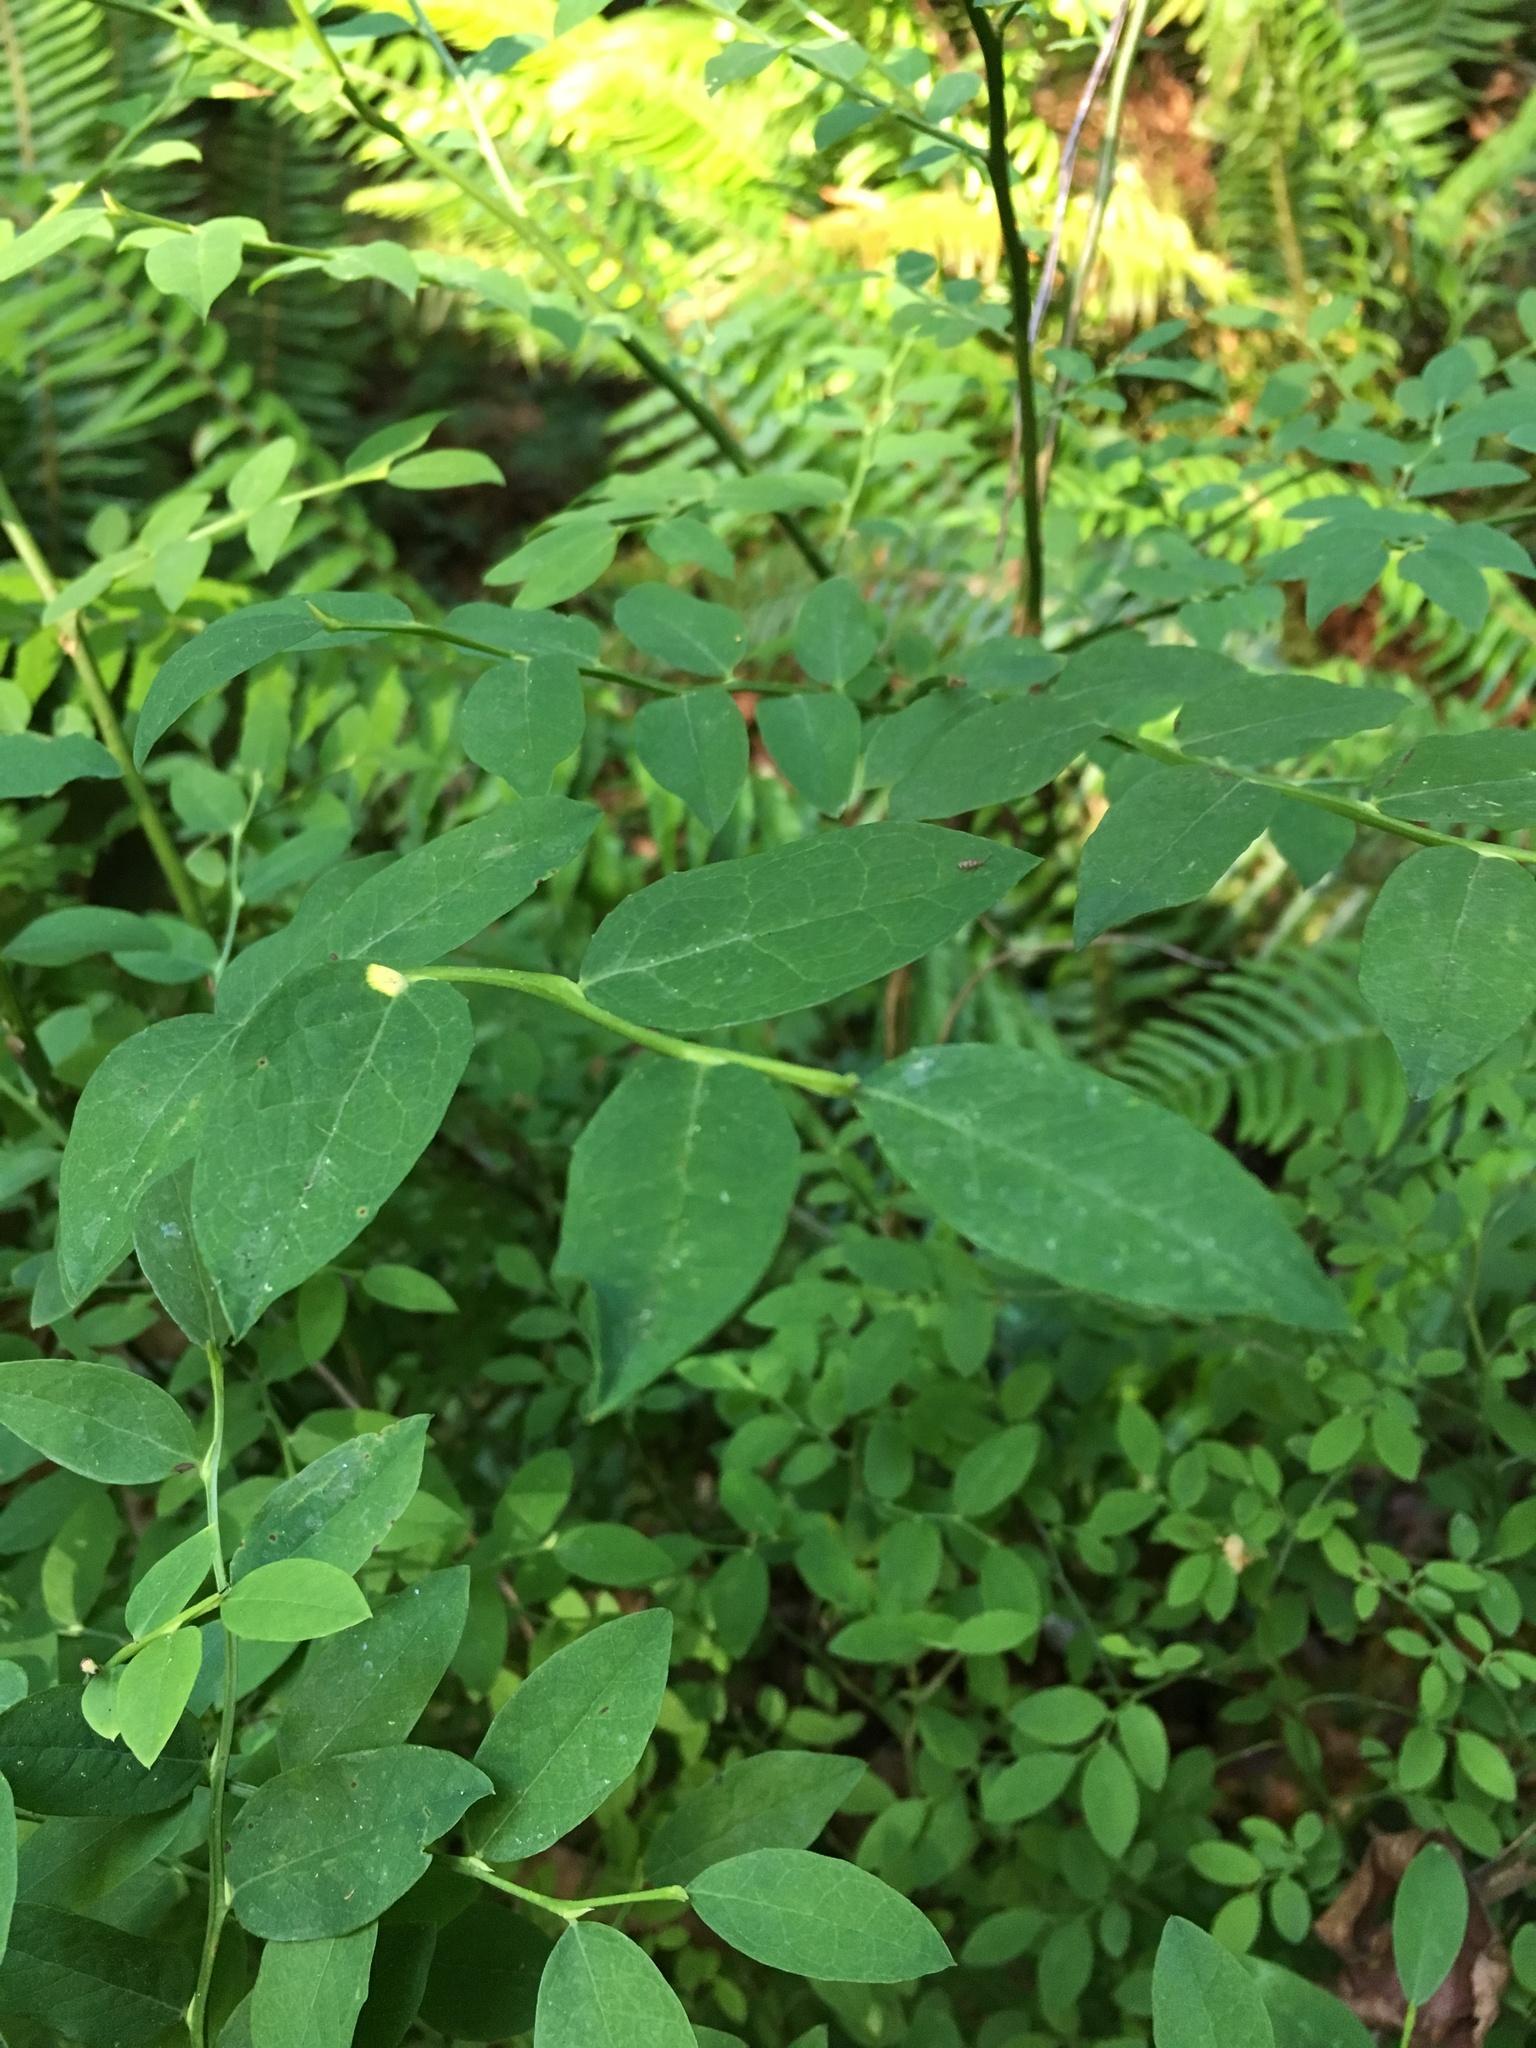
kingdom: Plantae
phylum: Tracheophyta
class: Magnoliopsida
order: Ericales
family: Ericaceae
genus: Vaccinium
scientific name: Vaccinium parvifolium
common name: Red-huckleberry
